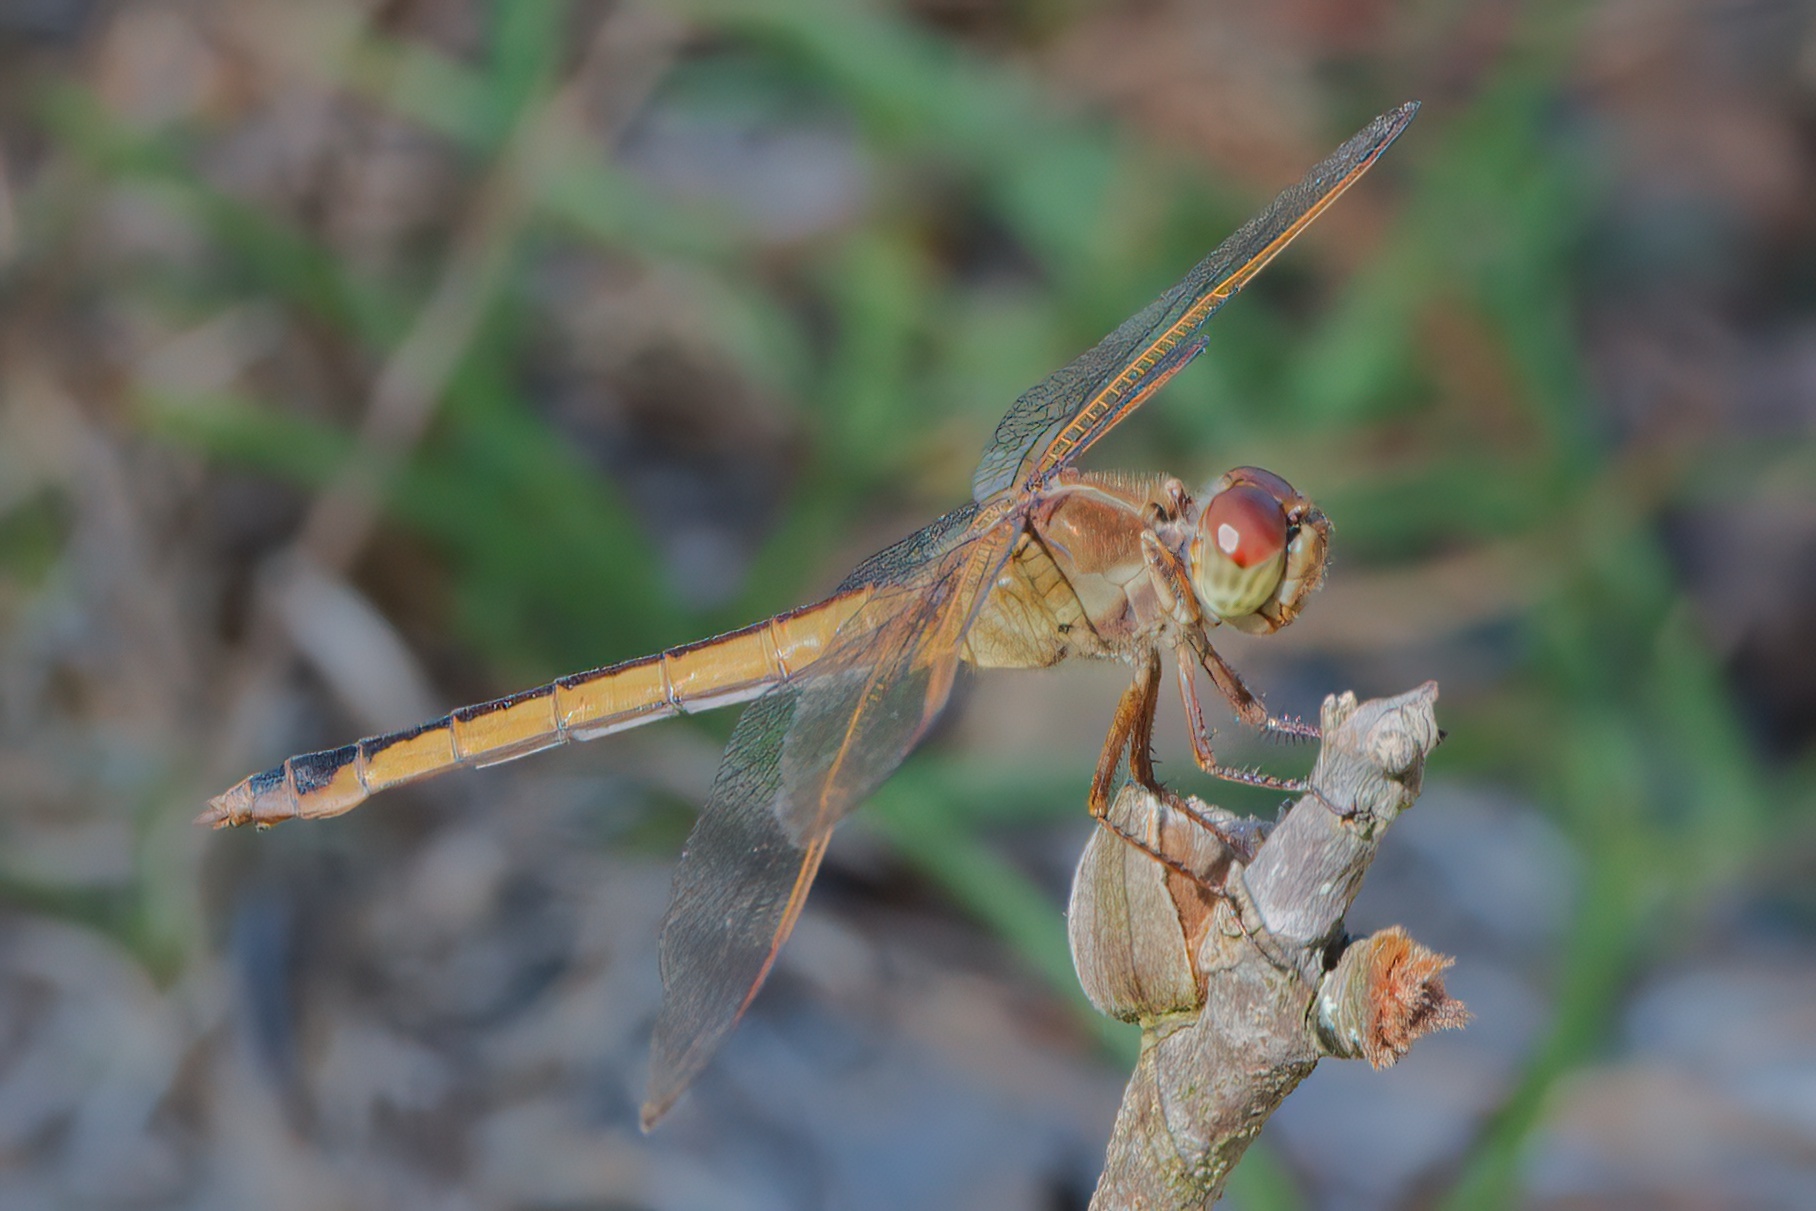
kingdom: Animalia
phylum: Arthropoda
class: Insecta
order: Odonata
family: Libellulidae
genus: Libellula
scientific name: Libellula needhami
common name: Needham's skimmer
